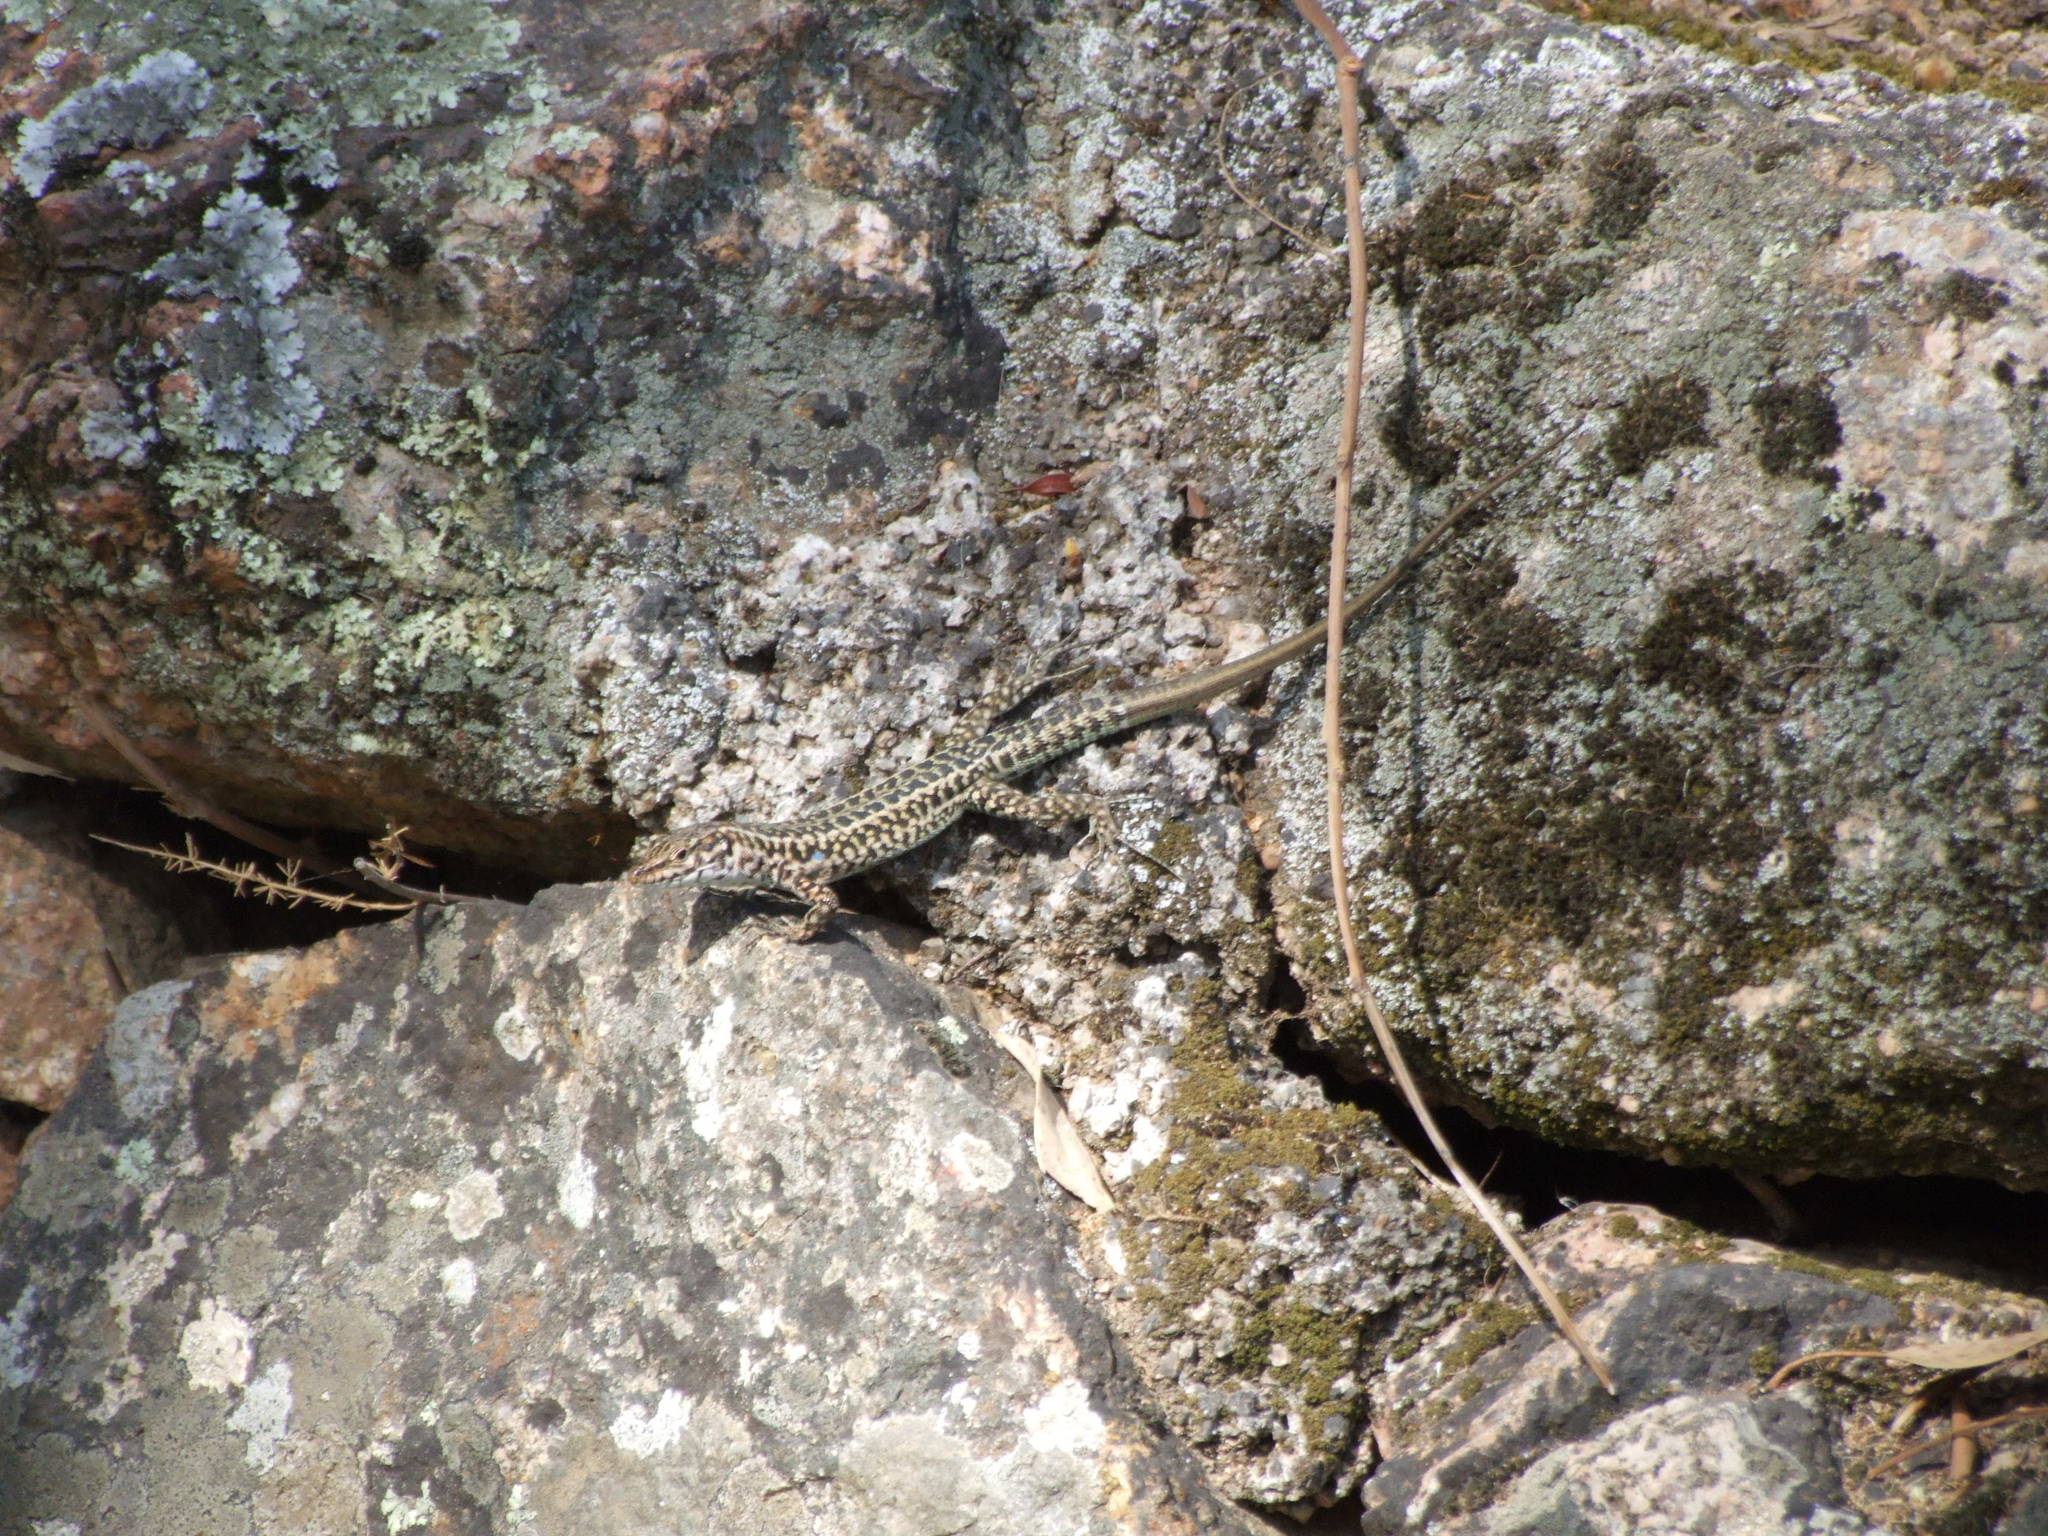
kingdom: Animalia
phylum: Chordata
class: Squamata
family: Lacertidae
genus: Podarcis
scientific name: Podarcis tiliguerta
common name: Tyrrhenian wall lizard
